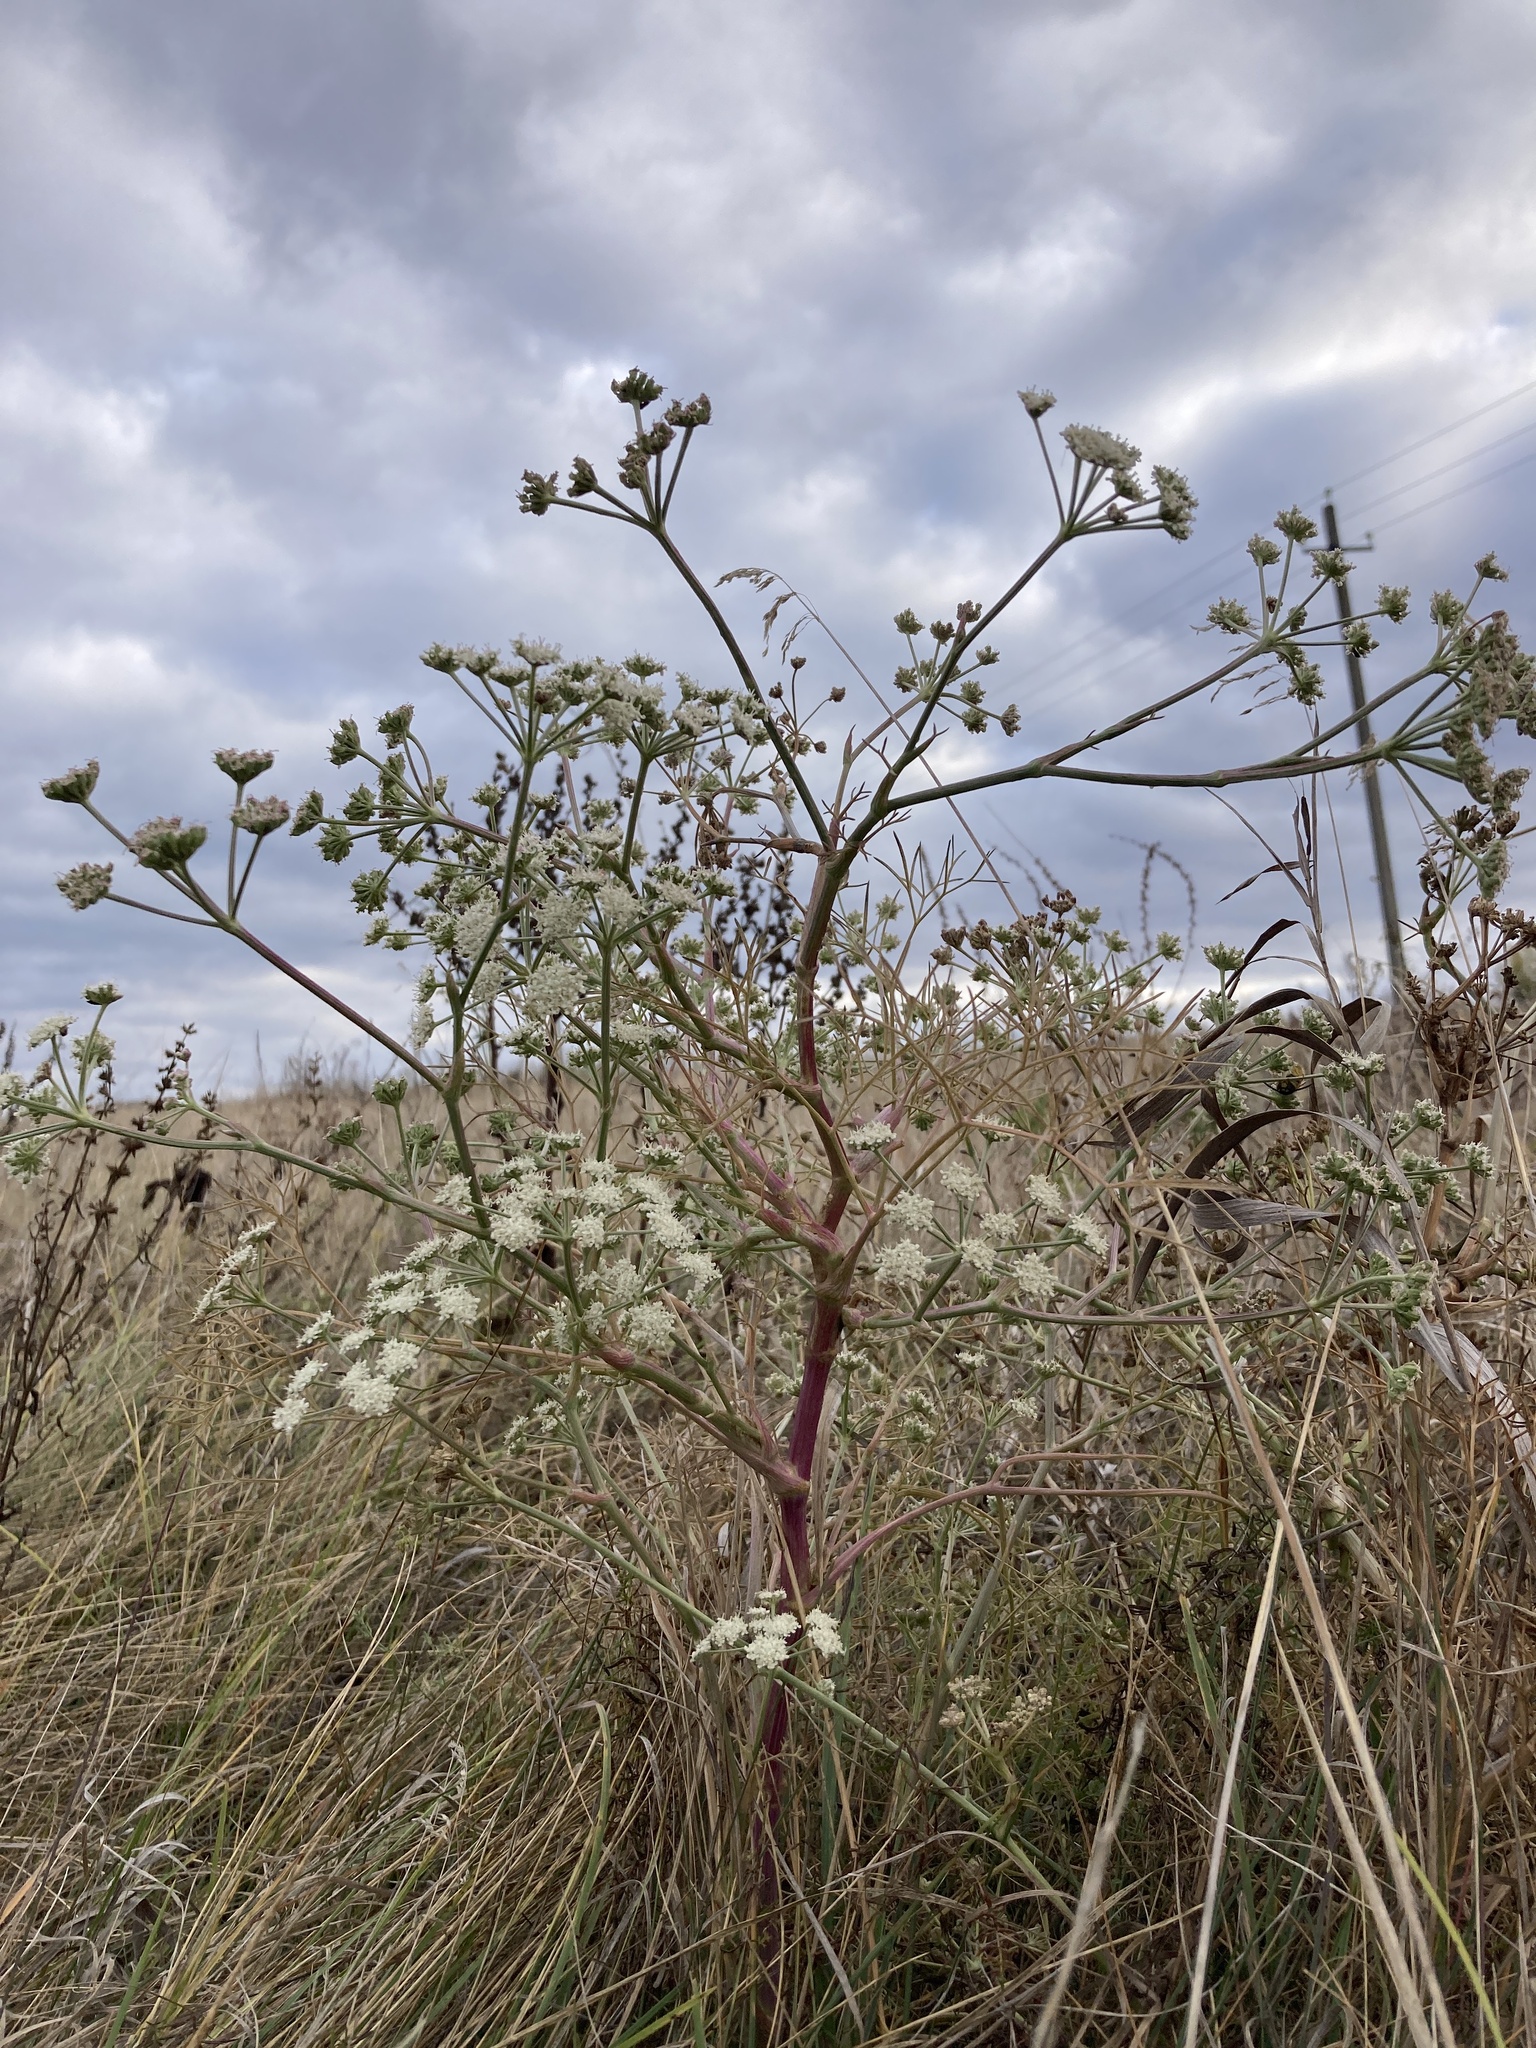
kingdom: Plantae
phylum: Tracheophyta
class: Magnoliopsida
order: Apiales
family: Apiaceae
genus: Seseli
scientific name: Seseli arenarium
